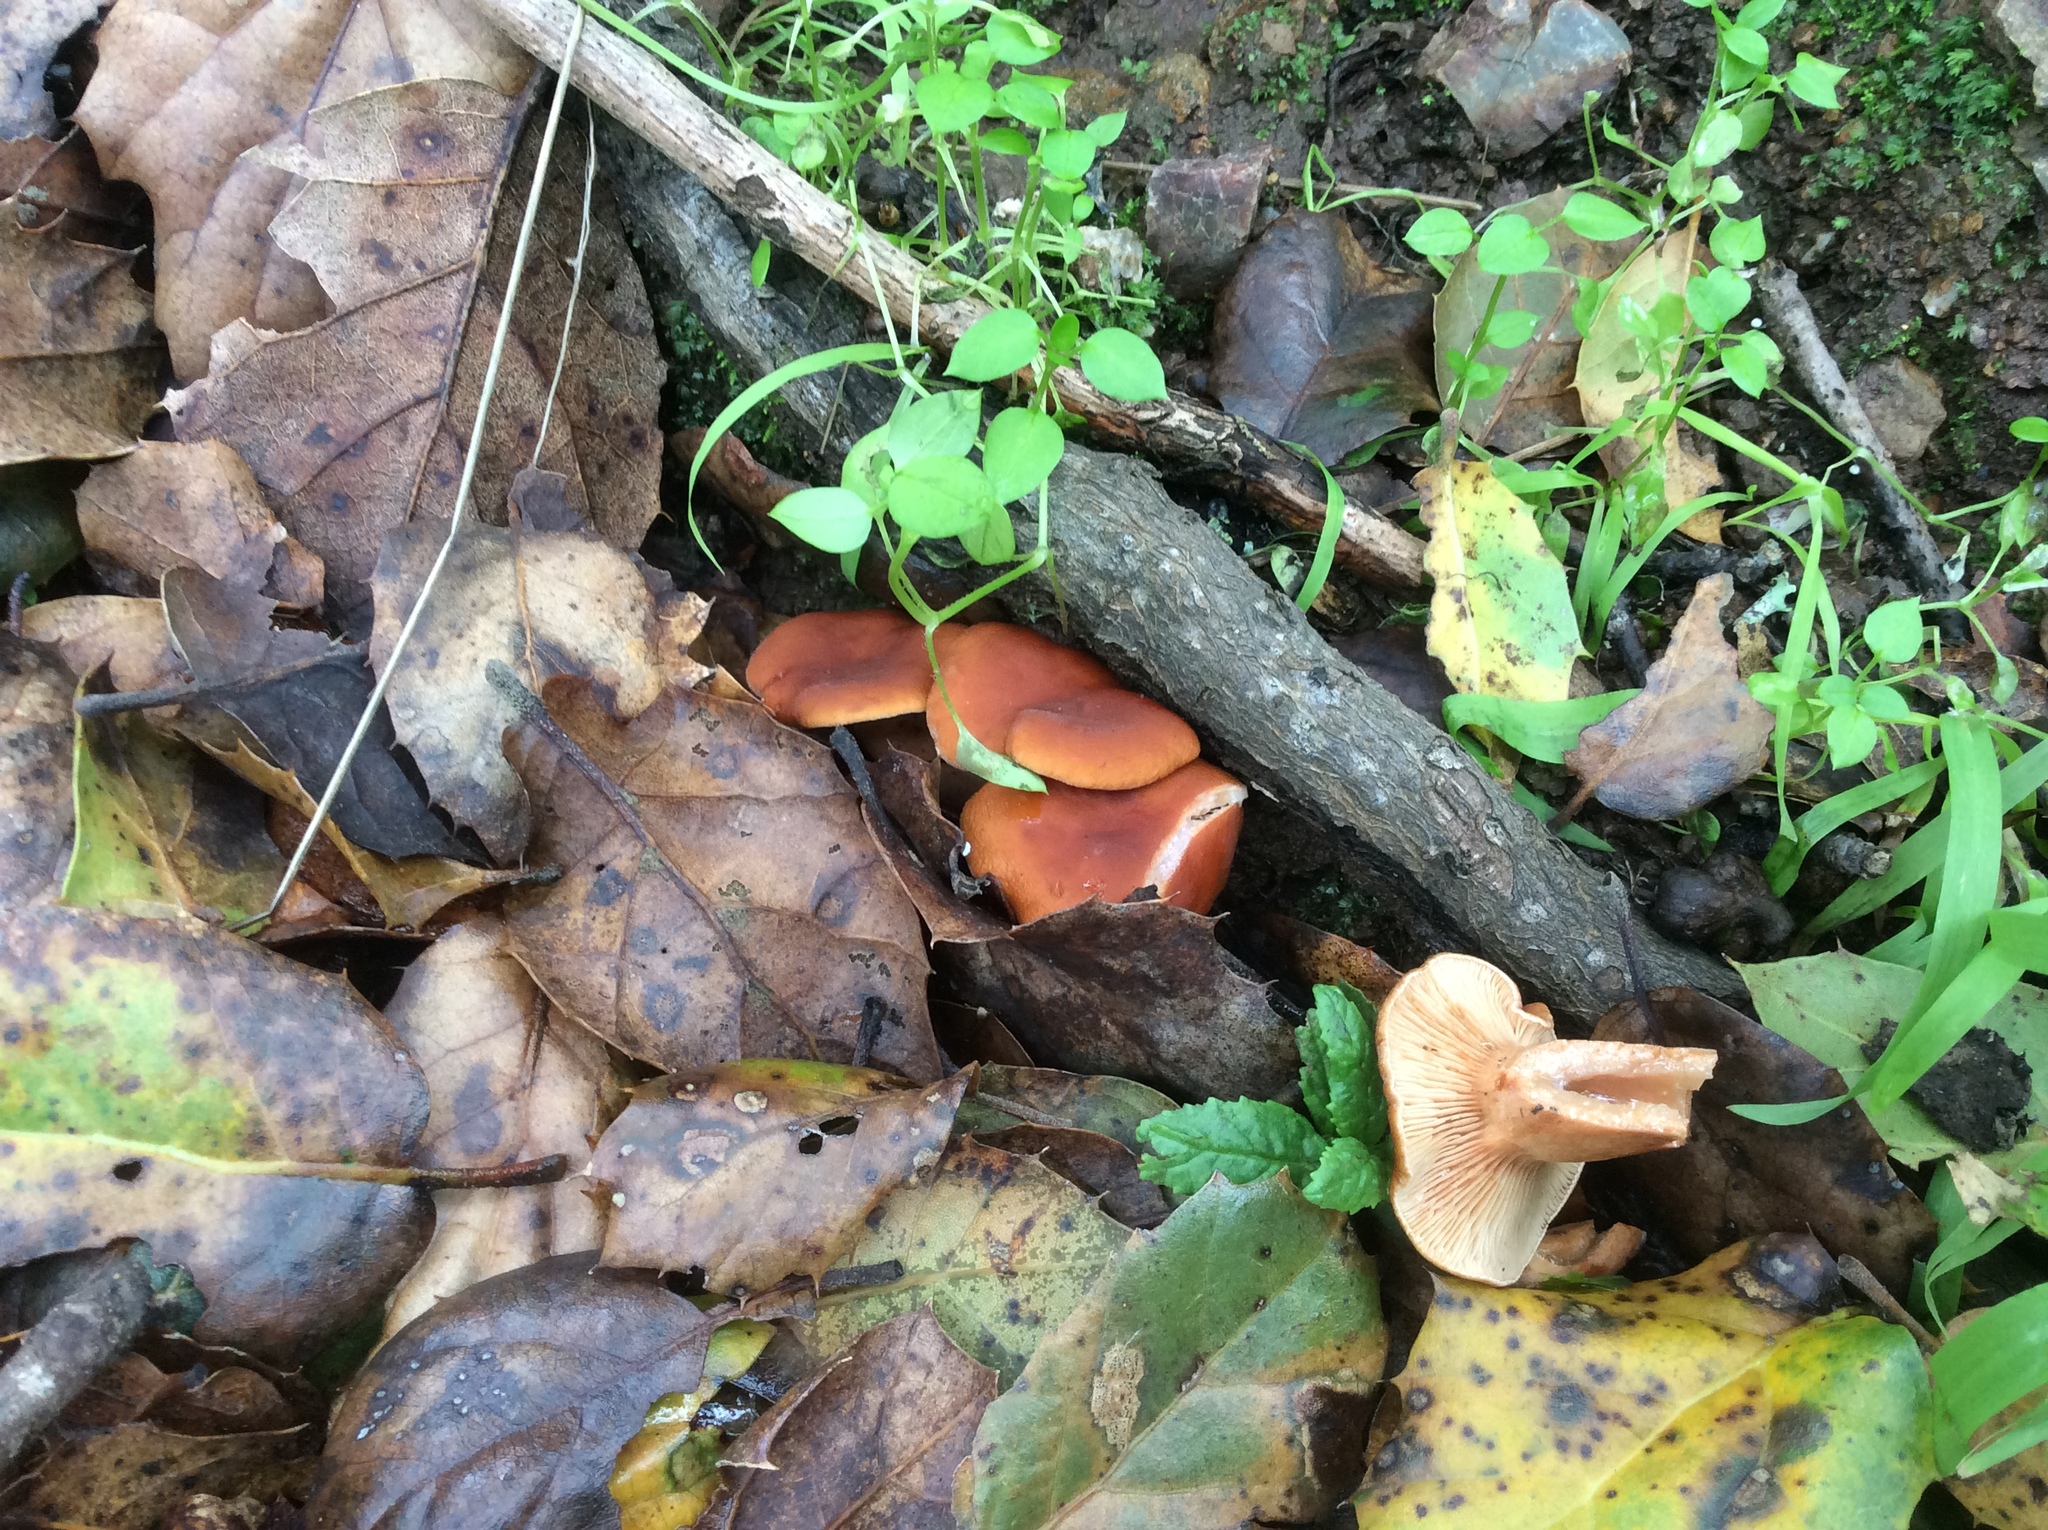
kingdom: Fungi
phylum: Basidiomycota
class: Agaricomycetes
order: Russulales
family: Russulaceae
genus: Lactarius
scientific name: Lactarius rubidus
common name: Candy cap
